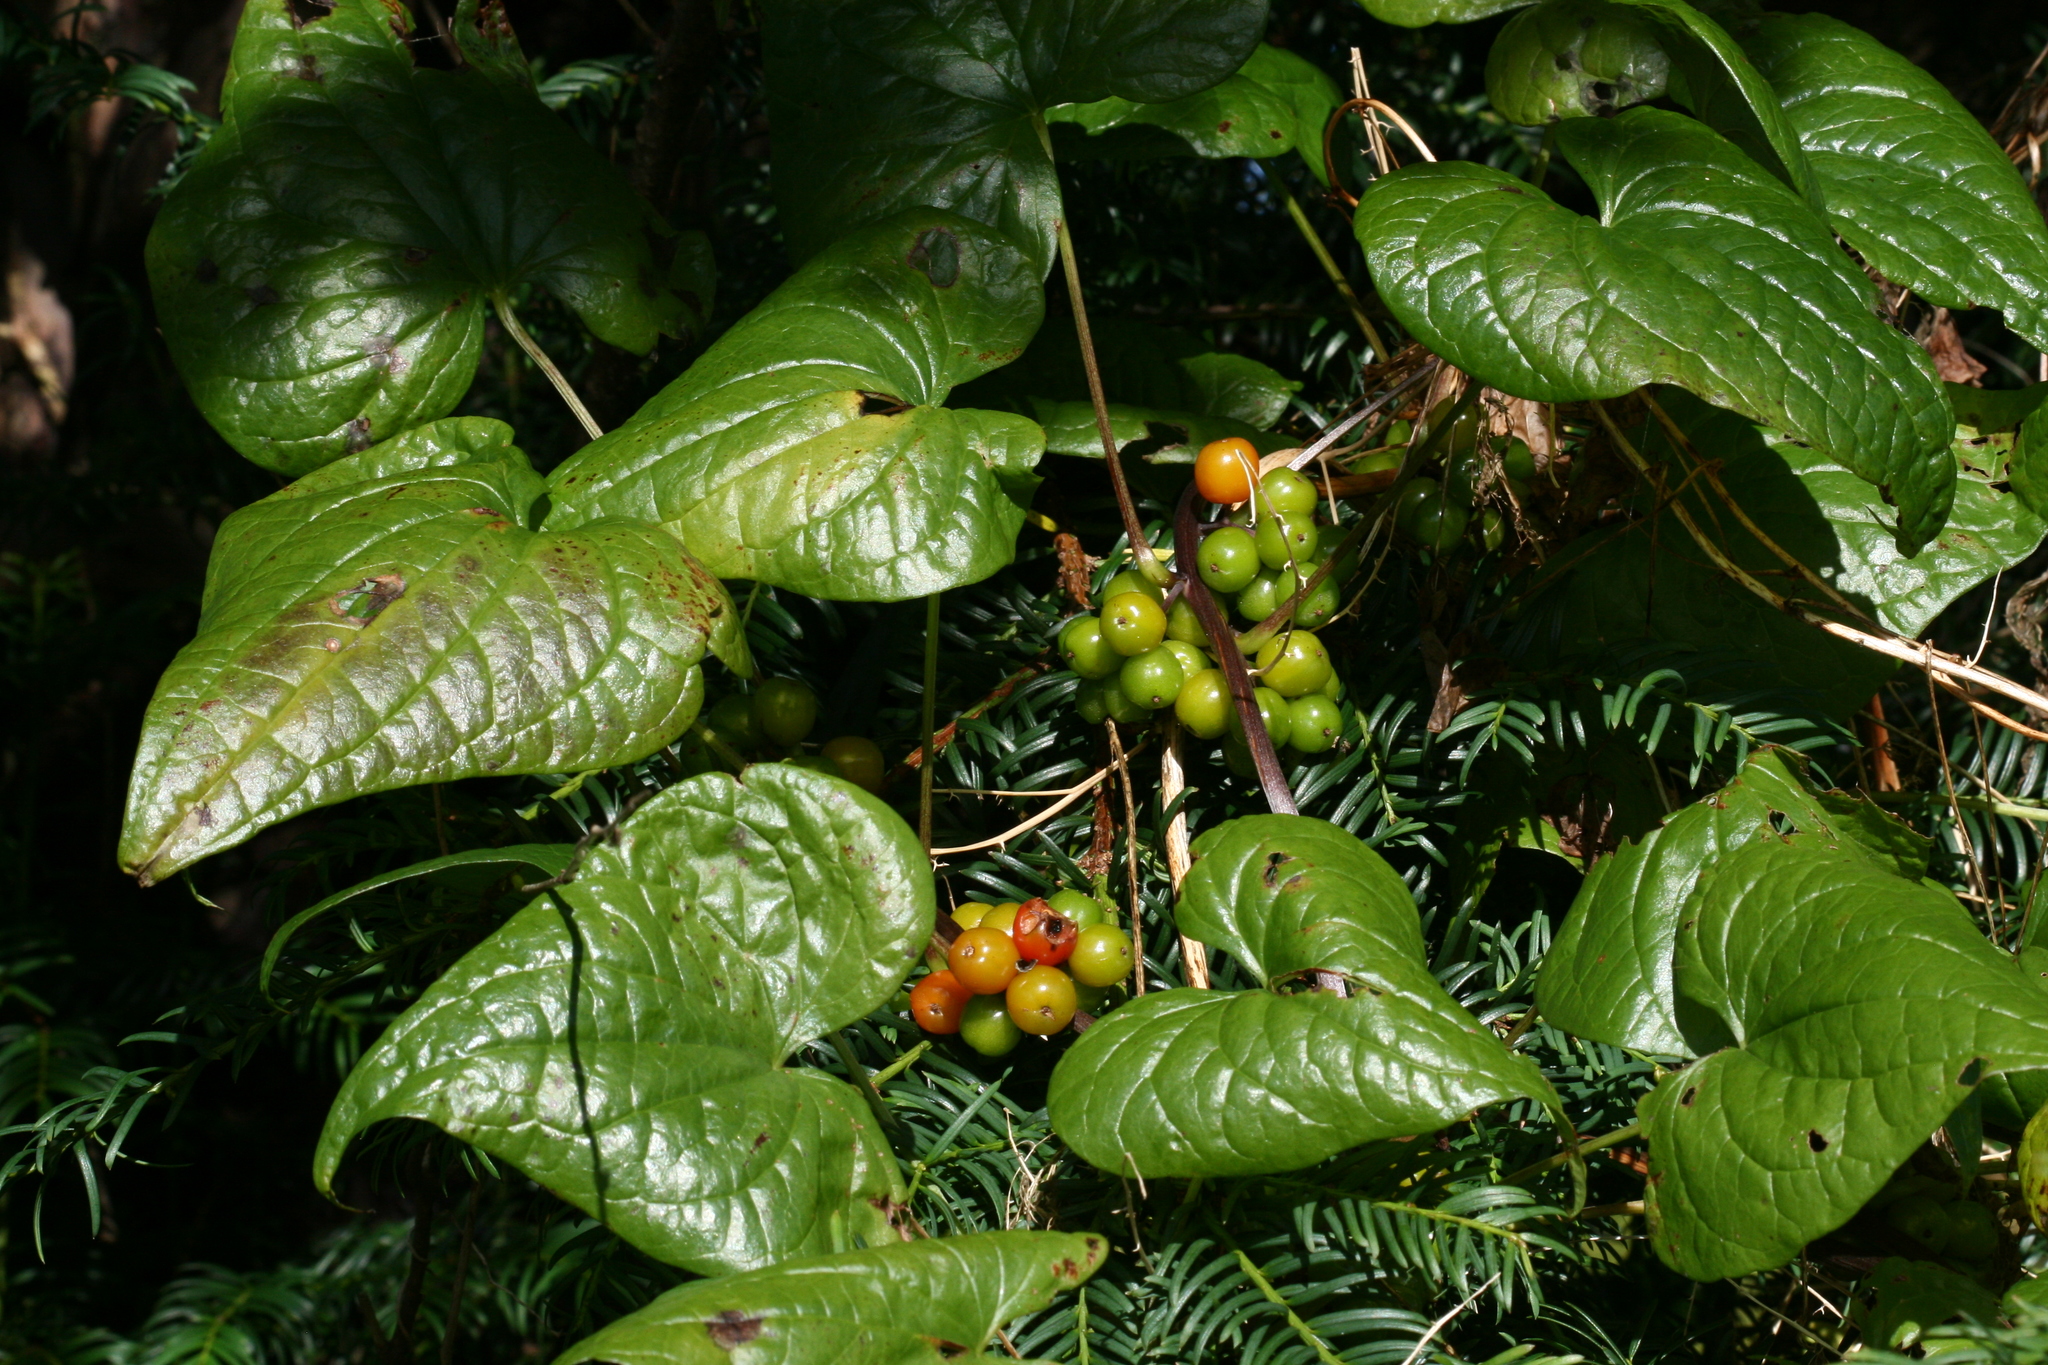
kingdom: Plantae
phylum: Tracheophyta
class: Liliopsida
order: Dioscoreales
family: Dioscoreaceae
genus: Dioscorea
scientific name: Dioscorea communis
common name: Black-bindweed
